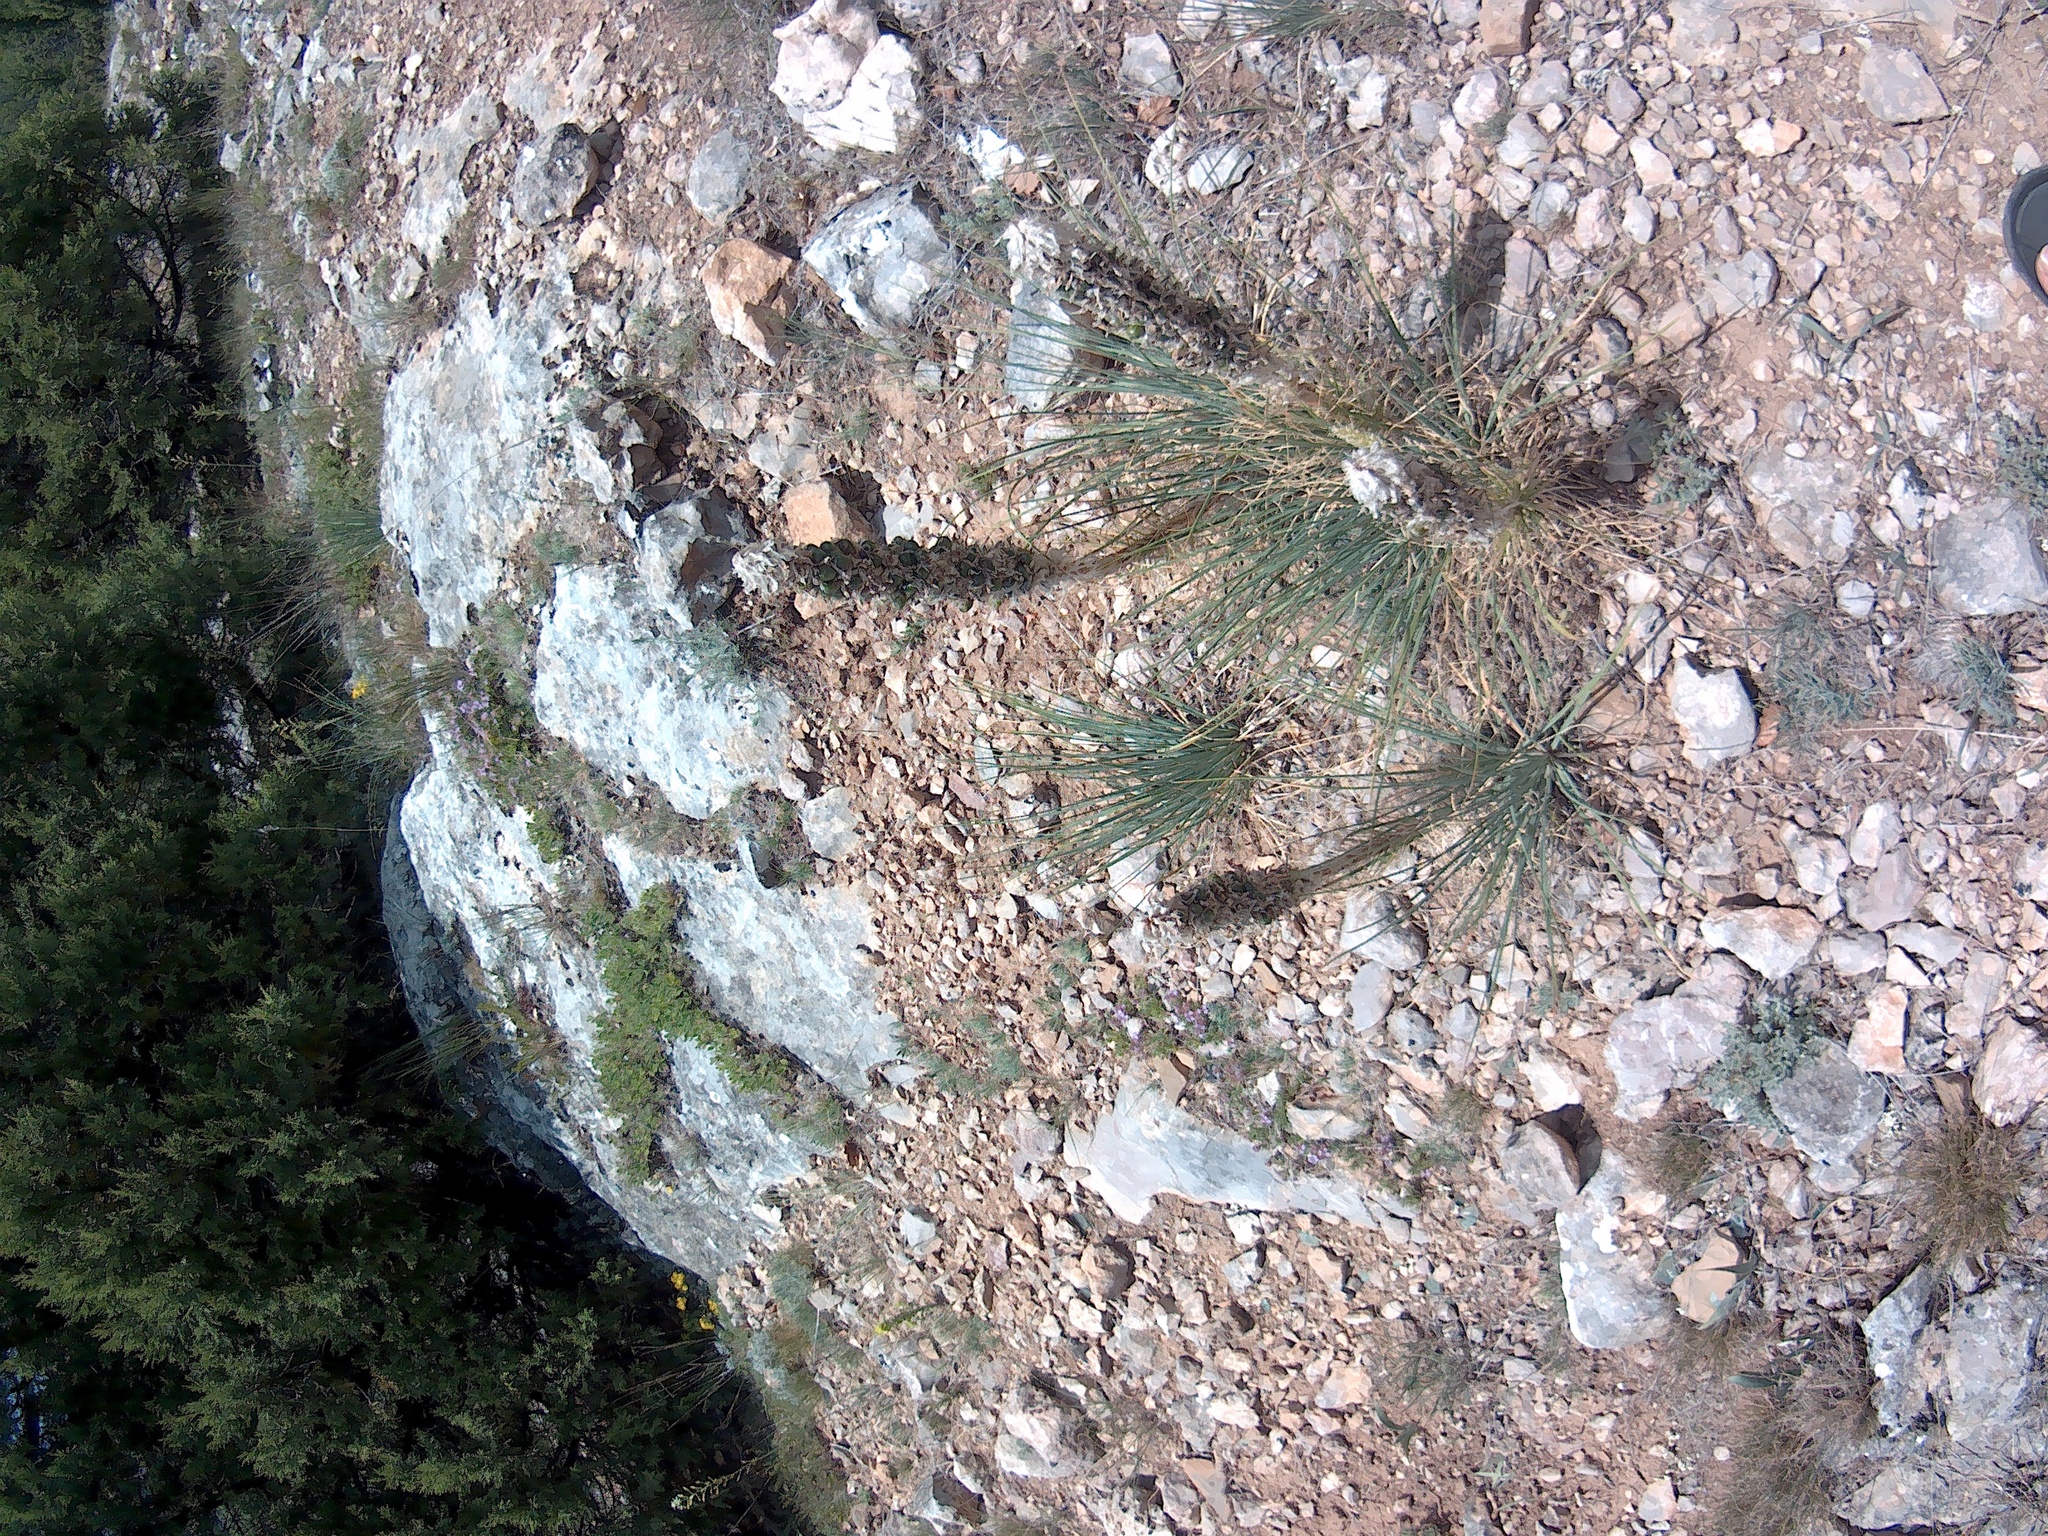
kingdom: Plantae
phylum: Tracheophyta
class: Liliopsida
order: Asparagales
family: Asphodelaceae
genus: Asphodeline
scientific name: Asphodeline taurica
